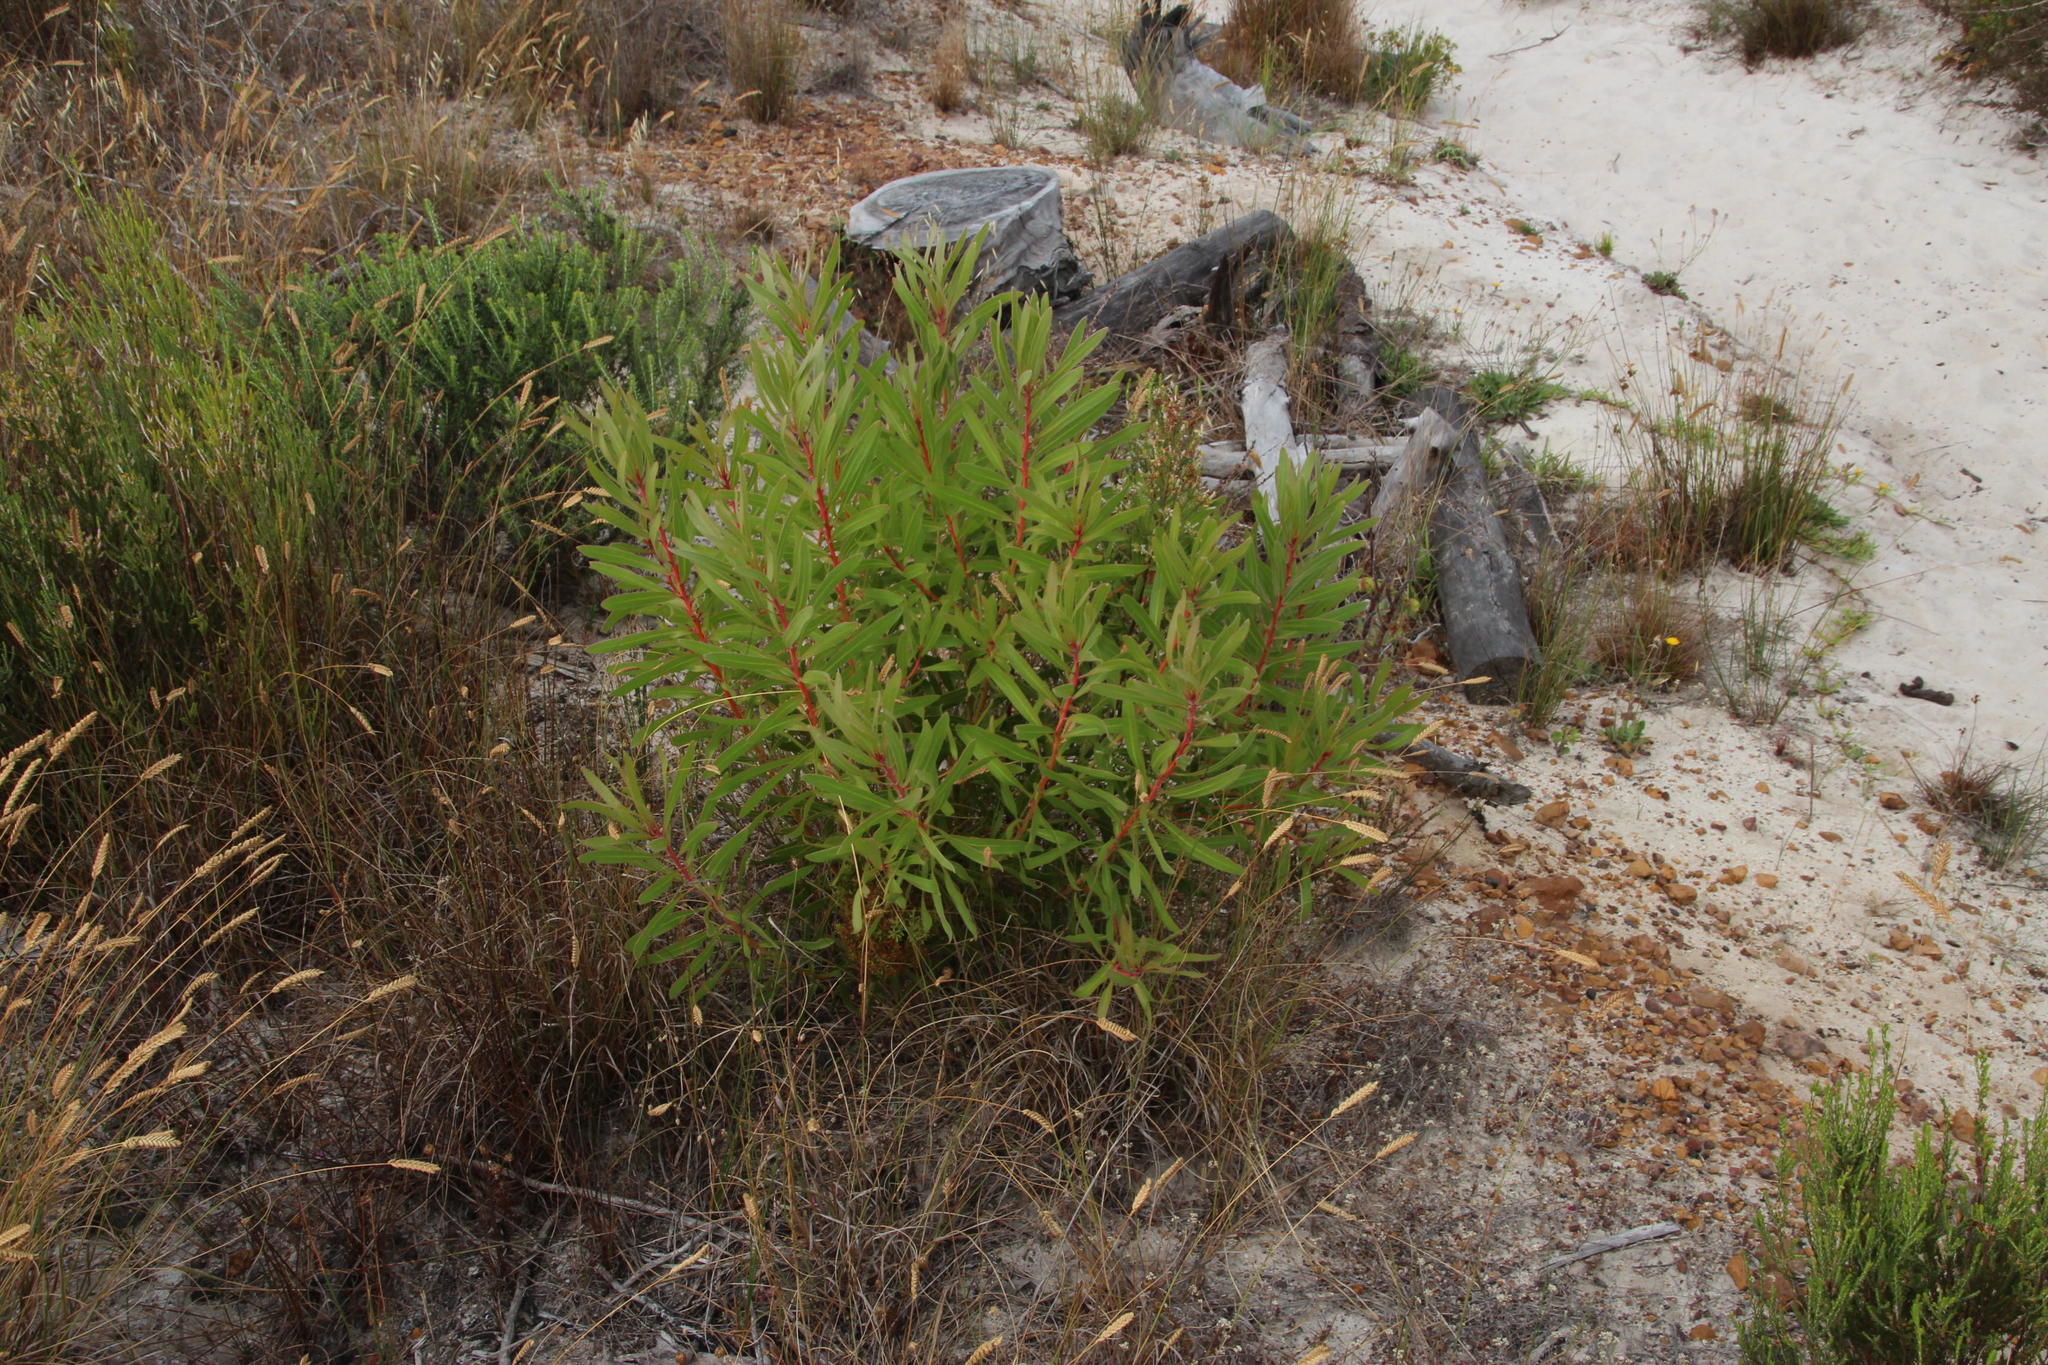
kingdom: Plantae
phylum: Tracheophyta
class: Magnoliopsida
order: Proteales
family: Proteaceae
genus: Protea
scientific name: Protea lepidocarpodendron
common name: Black-bearded protea
